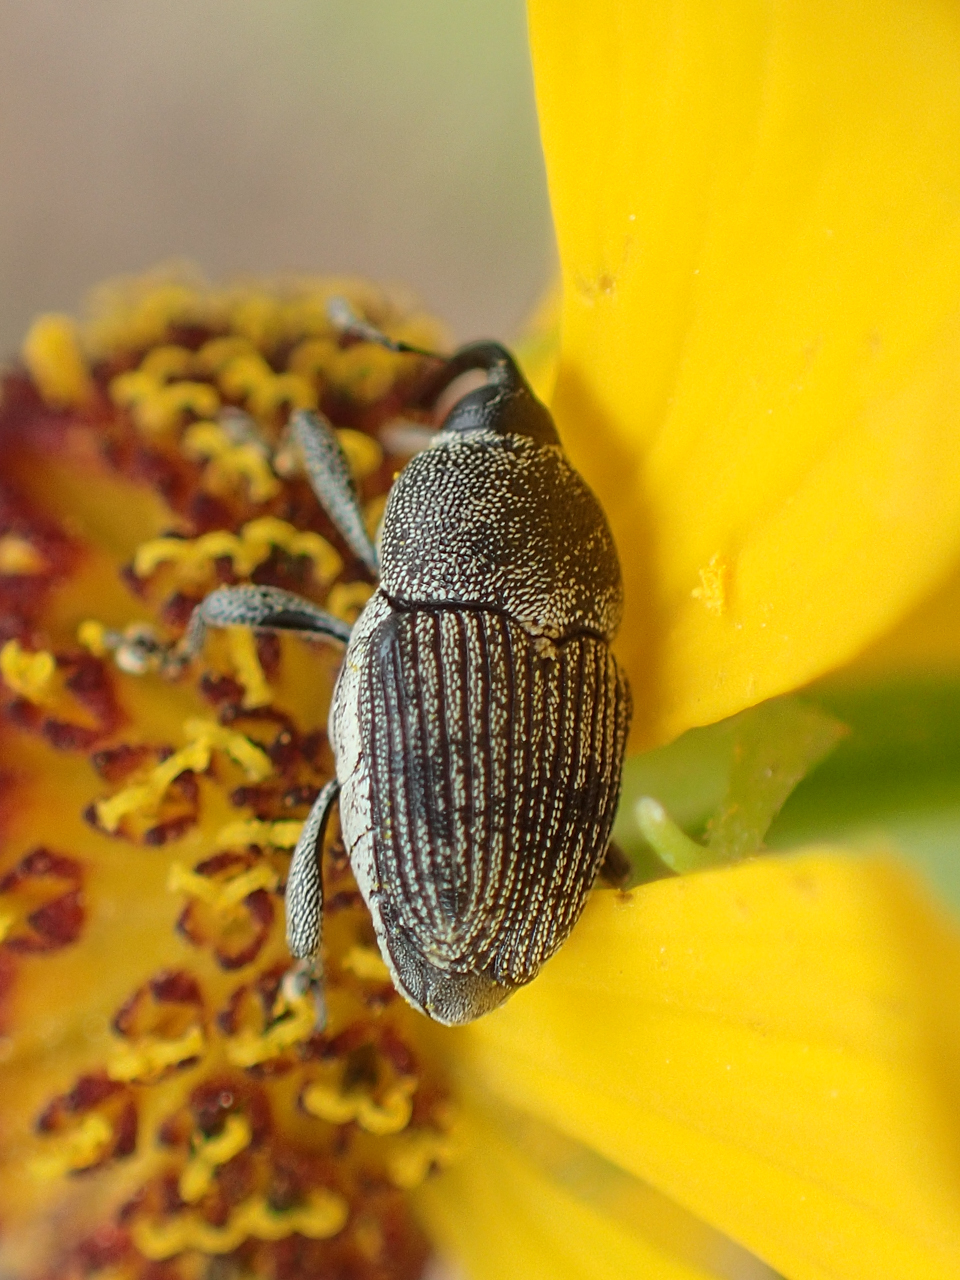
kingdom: Animalia
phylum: Arthropoda
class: Insecta
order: Coleoptera
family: Curculionidae
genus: Odontocorynus
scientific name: Odontocorynus salebrosus
